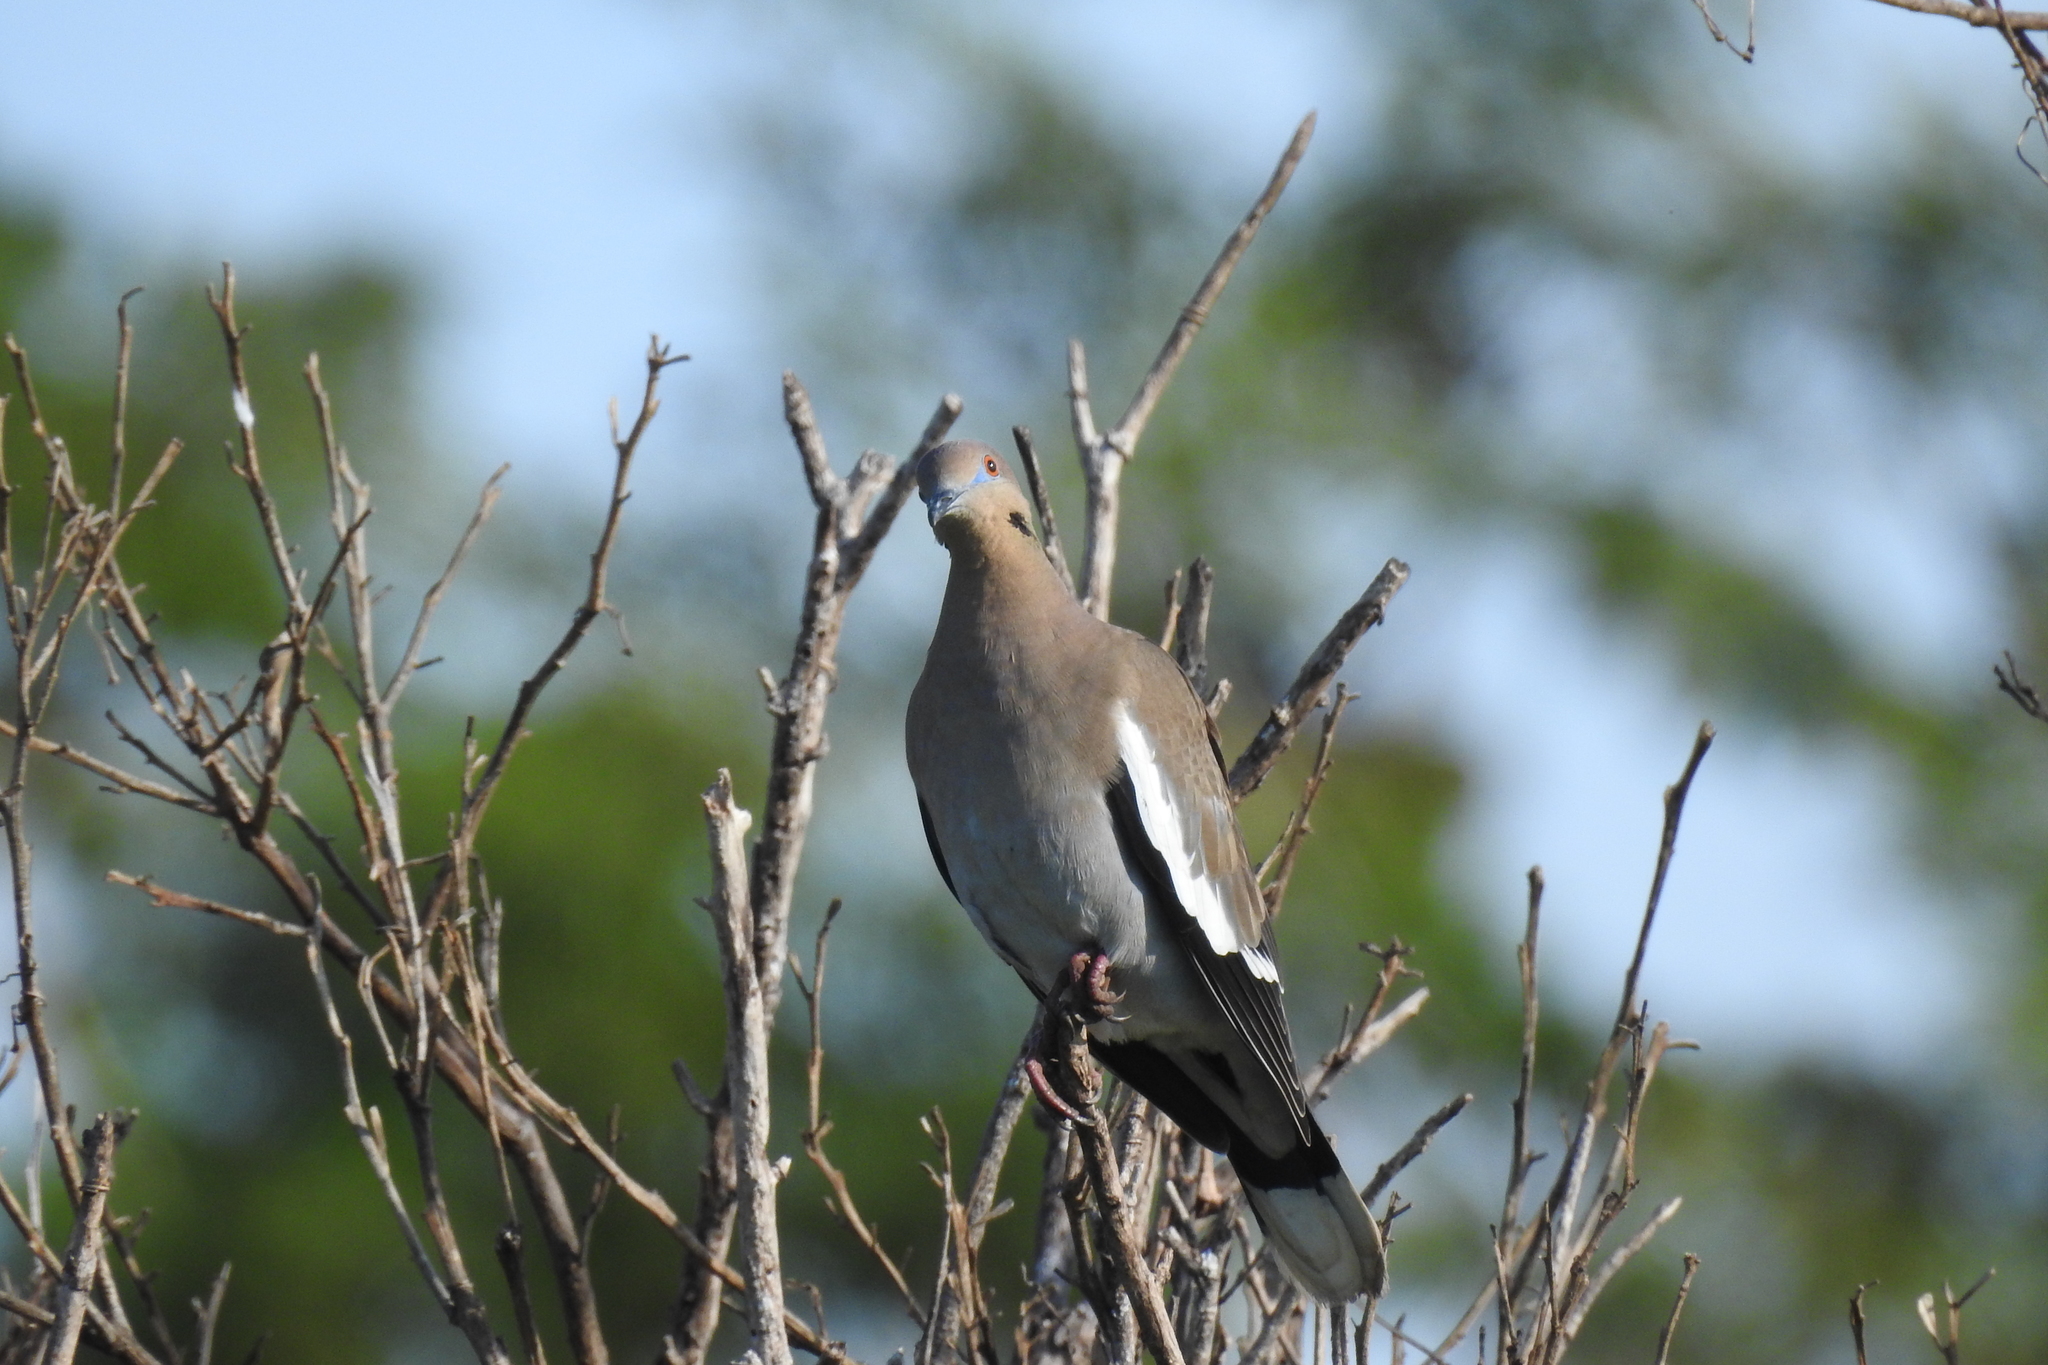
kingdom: Animalia
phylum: Chordata
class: Aves
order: Columbiformes
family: Columbidae
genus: Zenaida
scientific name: Zenaida asiatica
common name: White-winged dove
